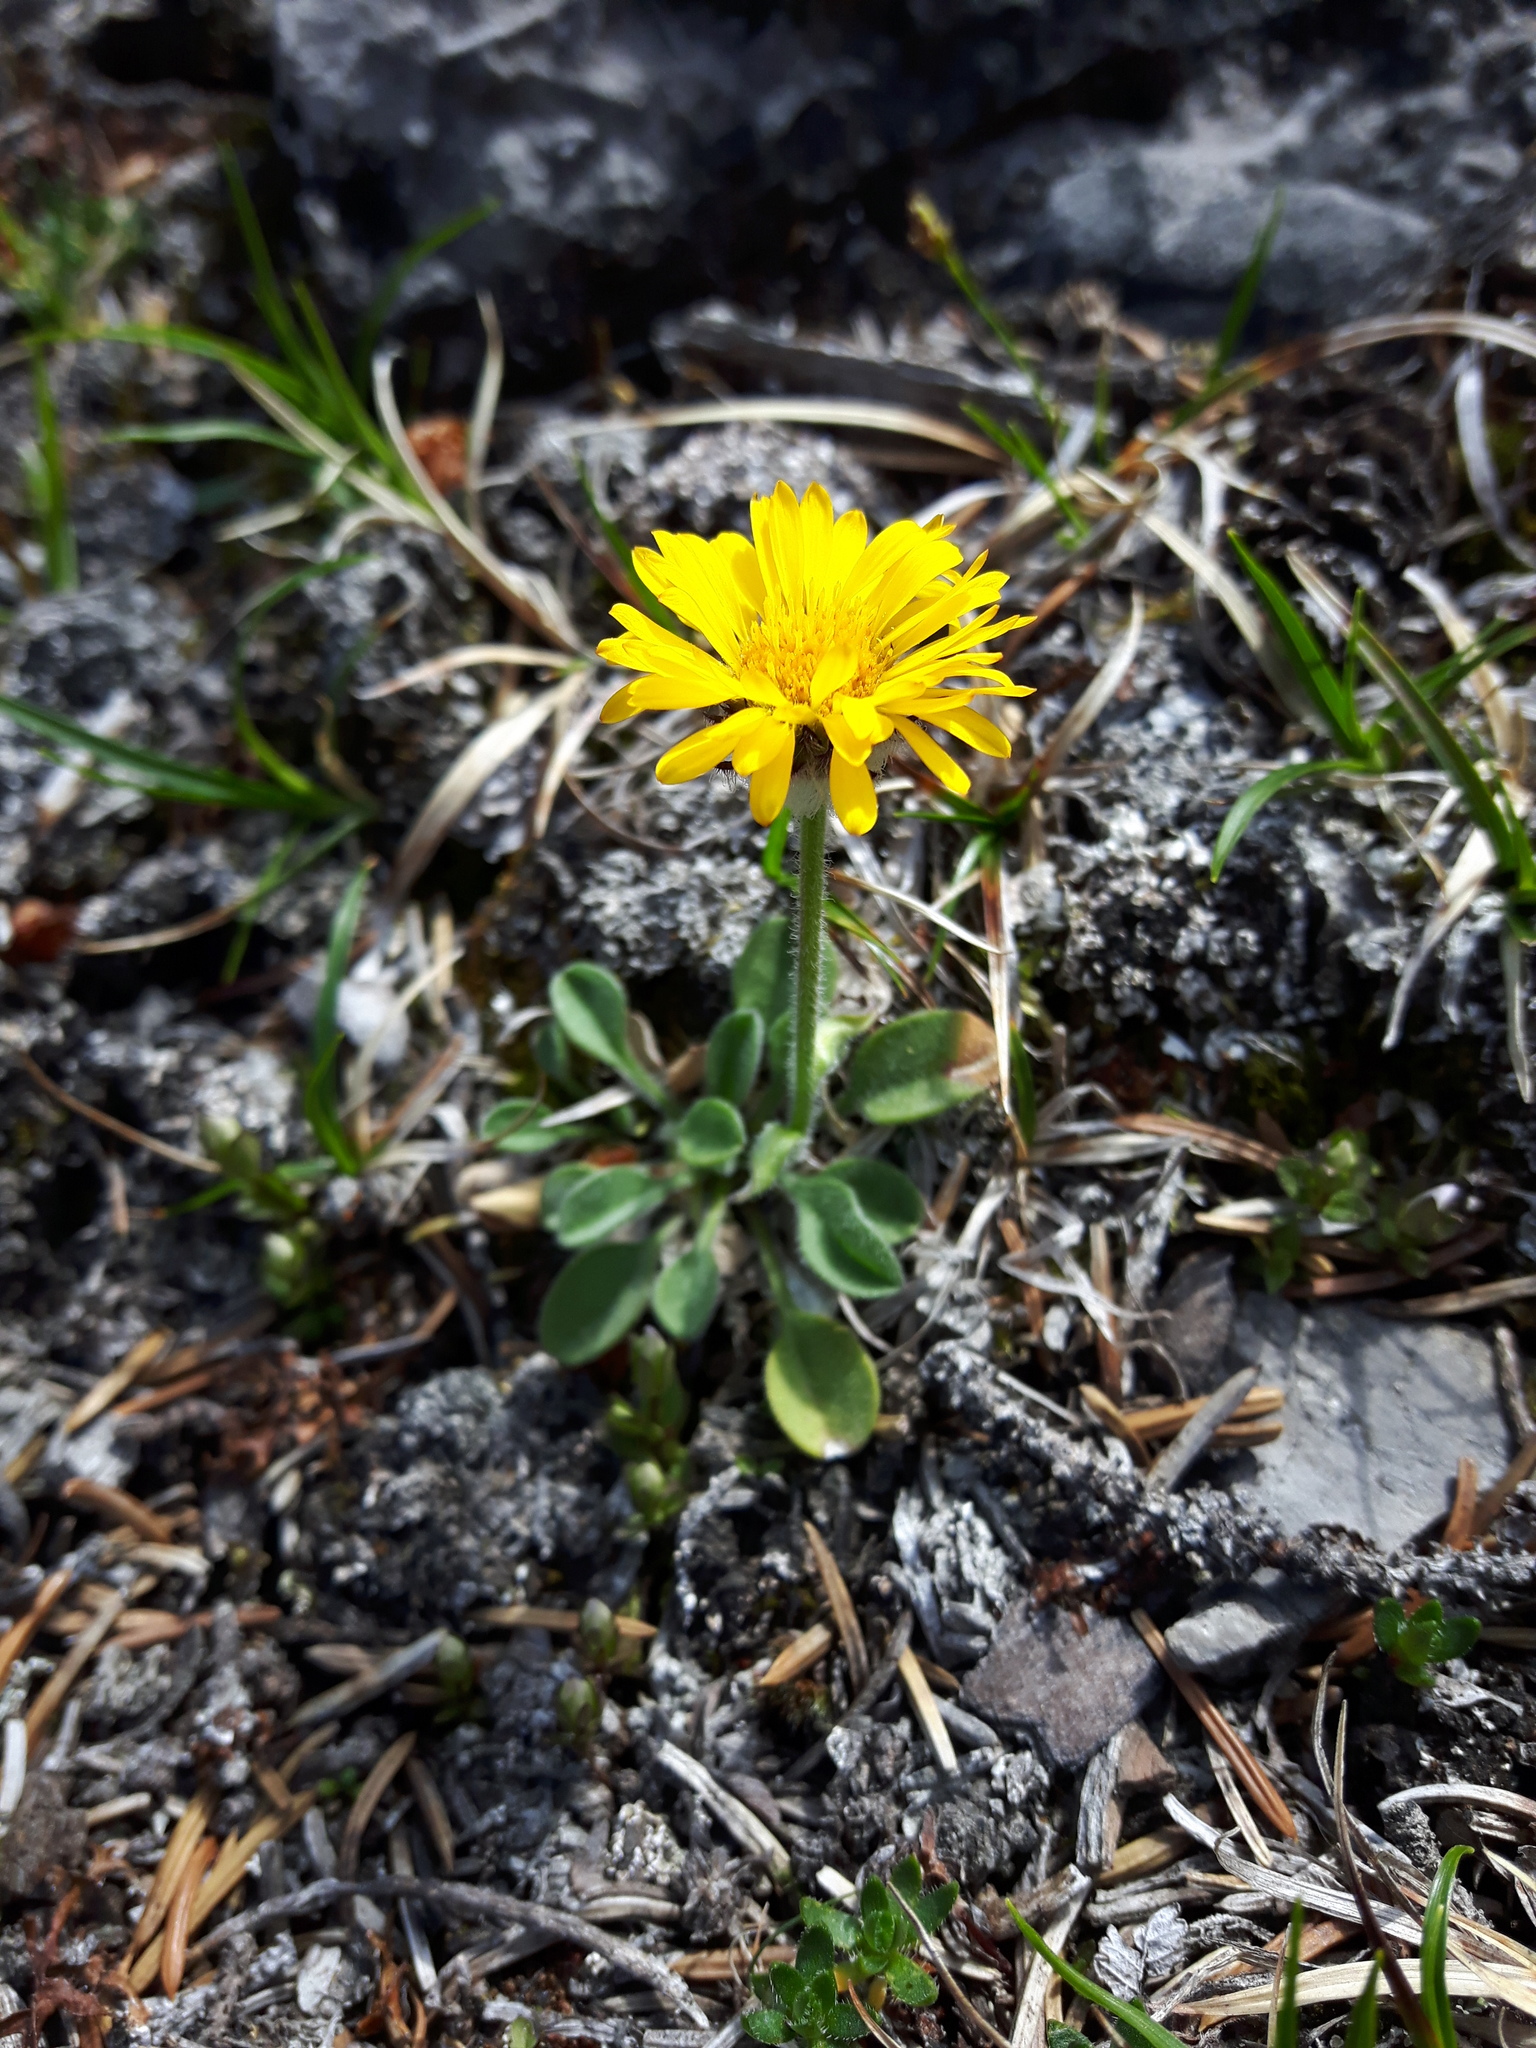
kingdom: Plantae
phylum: Tracheophyta
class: Magnoliopsida
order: Asterales
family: Asteraceae
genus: Erigeron
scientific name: Erigeron aureus
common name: Alpine yellow fleabane
